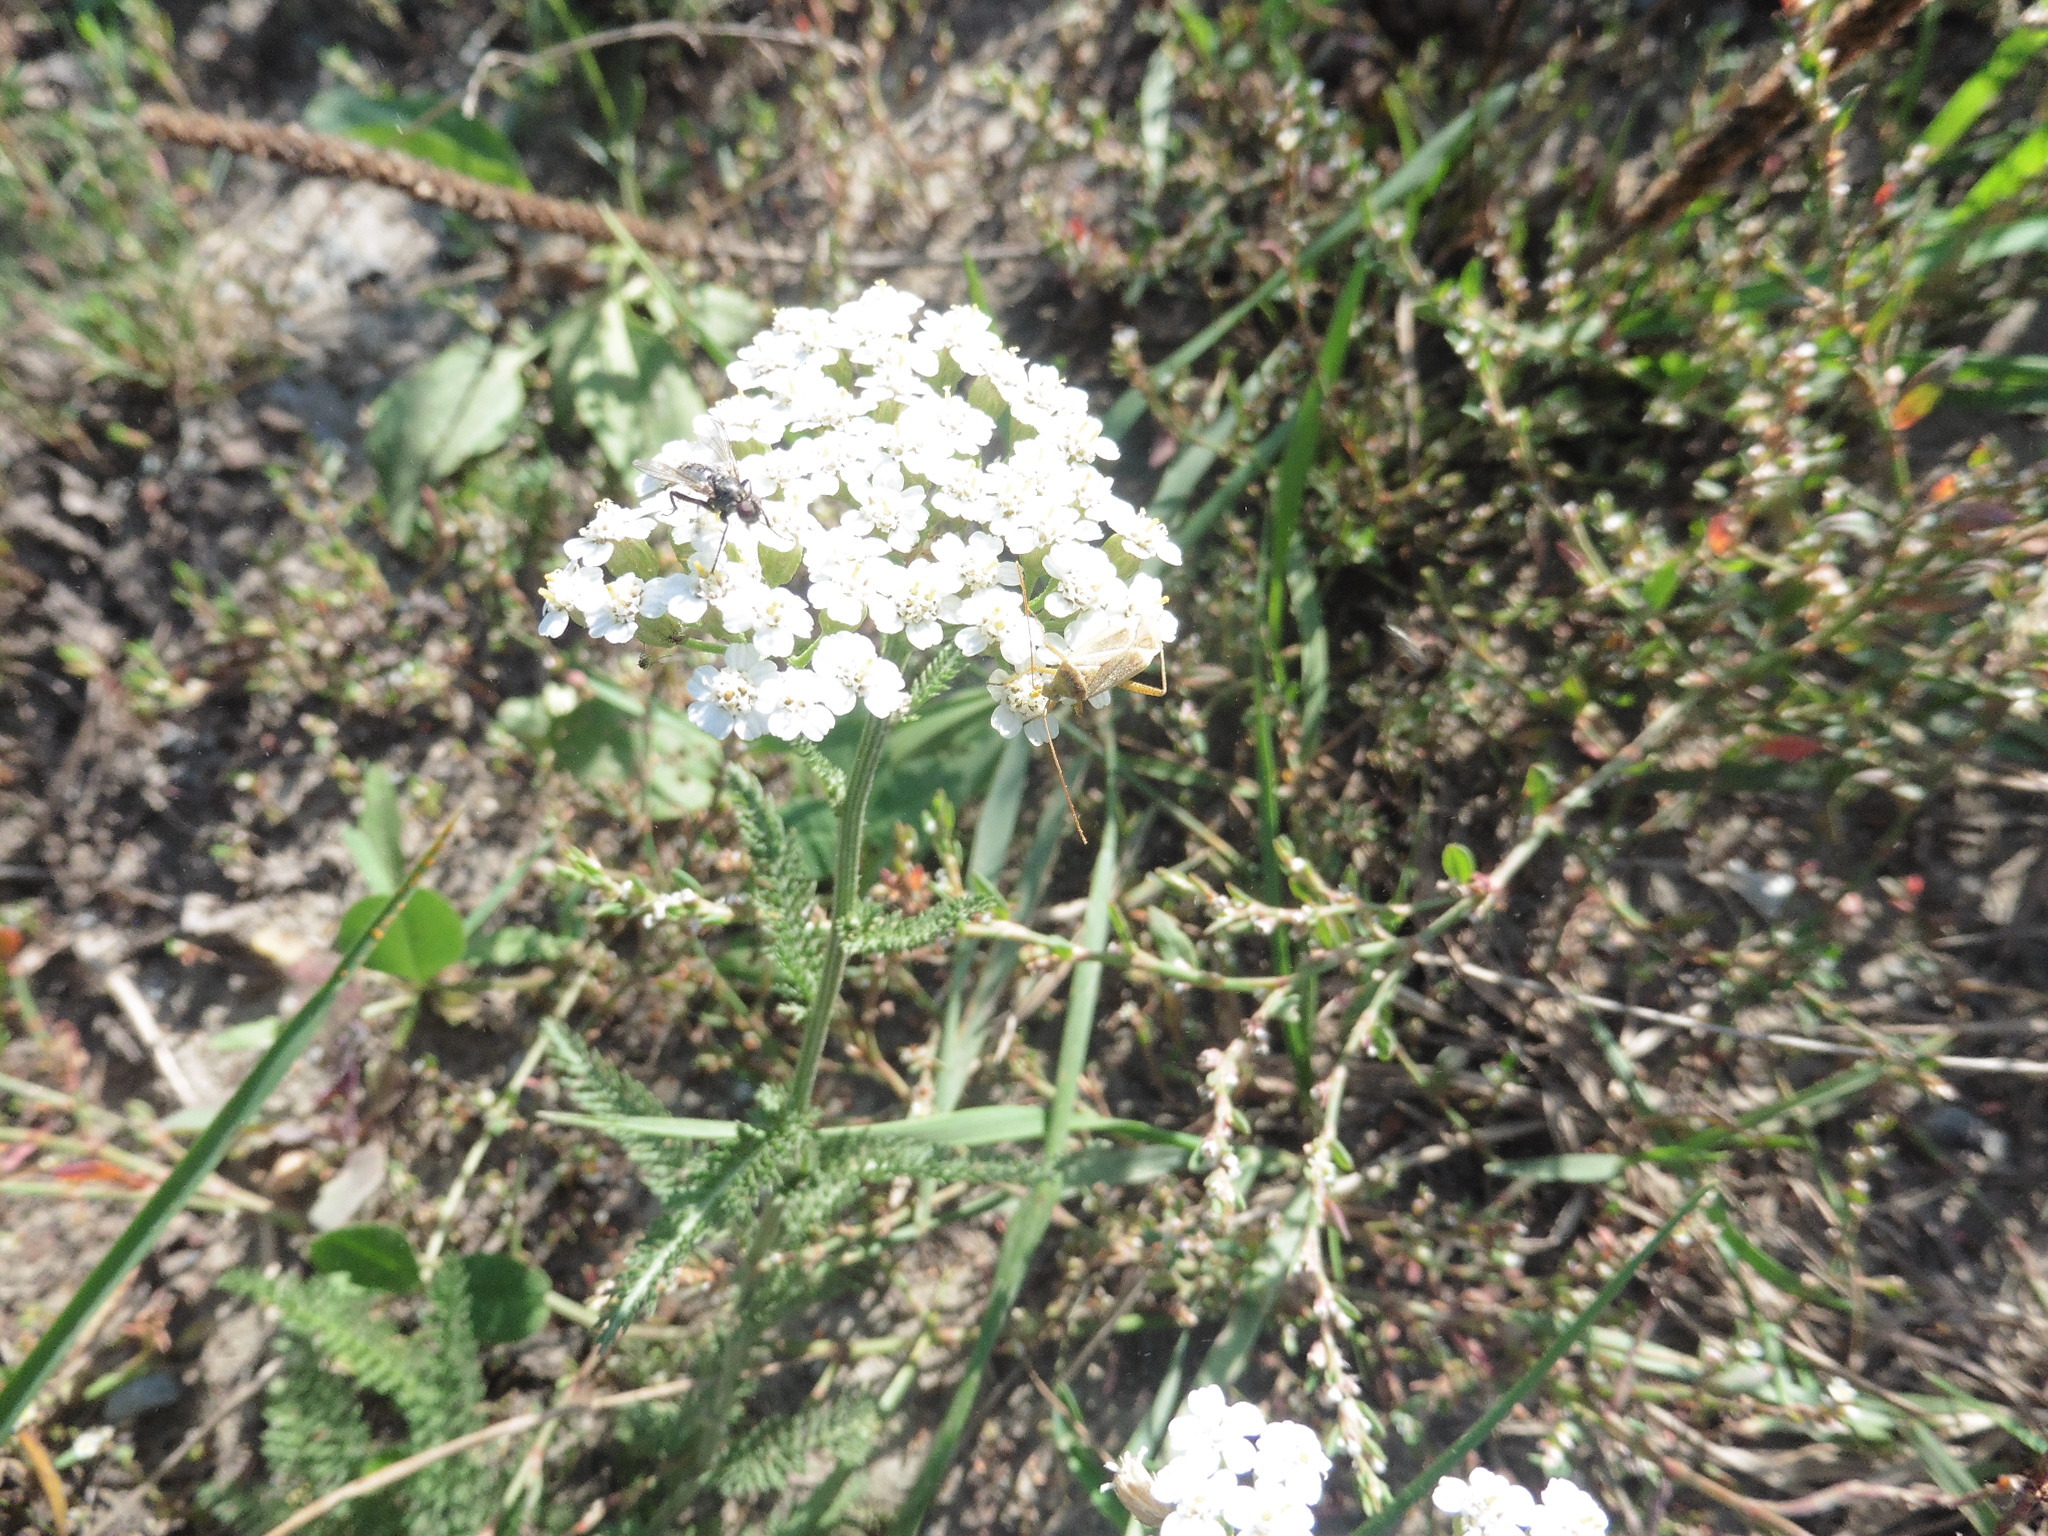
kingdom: Plantae
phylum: Tracheophyta
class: Magnoliopsida
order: Asterales
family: Asteraceae
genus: Achillea
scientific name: Achillea millefolium
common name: Yarrow
